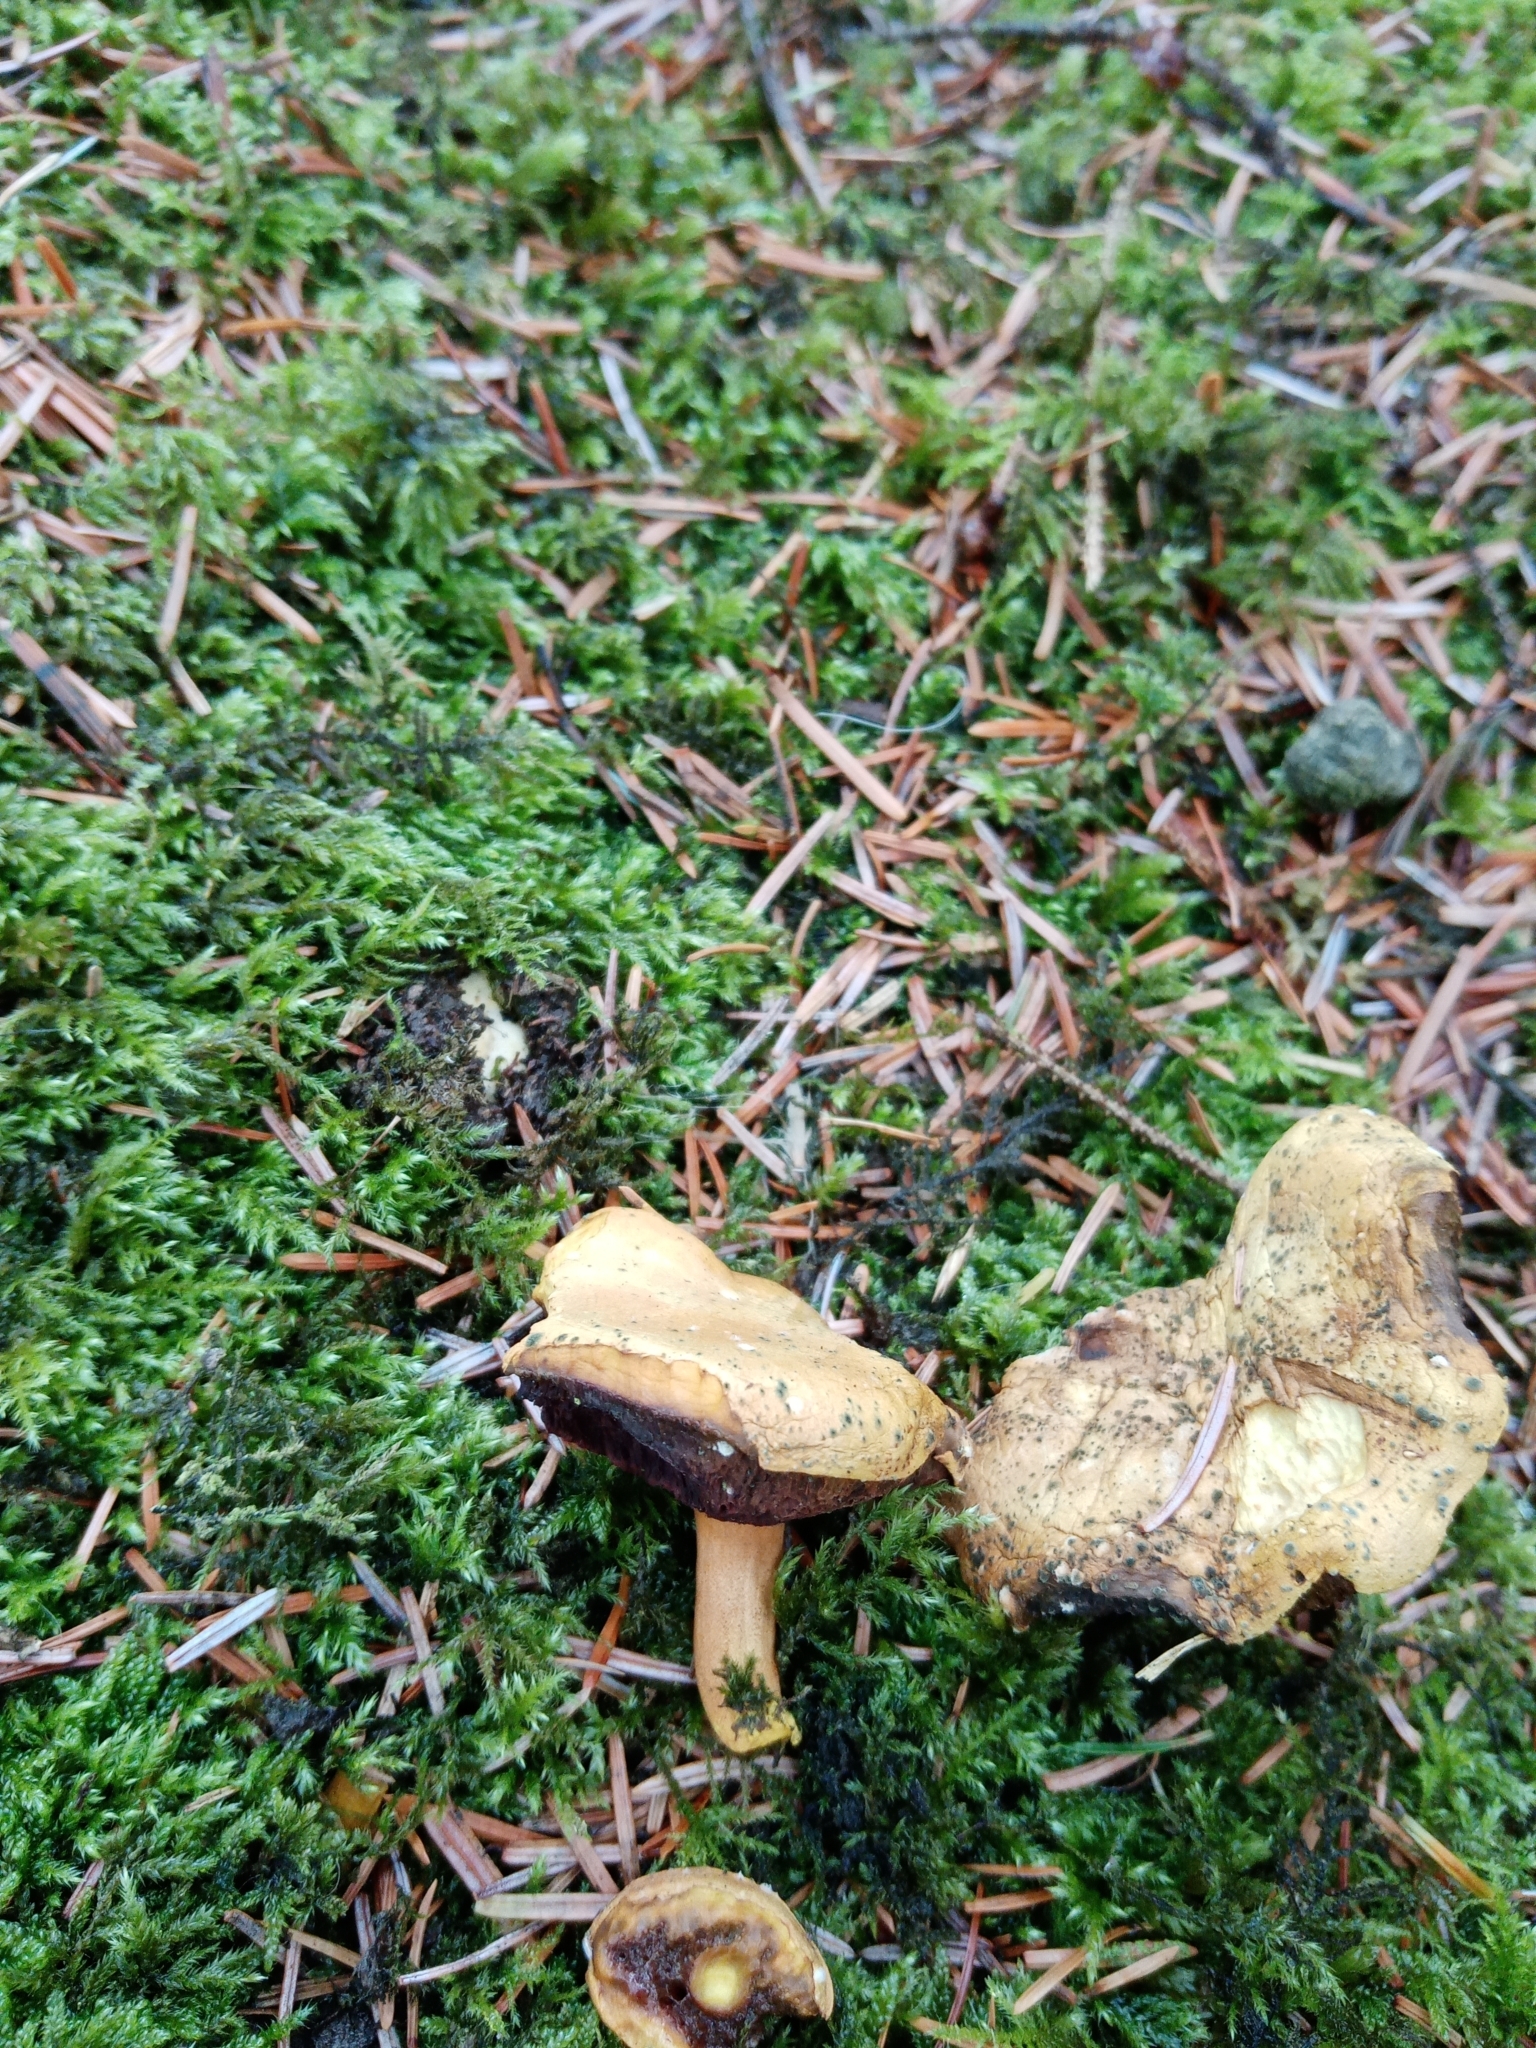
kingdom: Fungi
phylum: Basidiomycota
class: Agaricomycetes
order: Boletales
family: Boletaceae
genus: Chalciporus
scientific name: Chalciporus piperatus
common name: Peppery bolete
